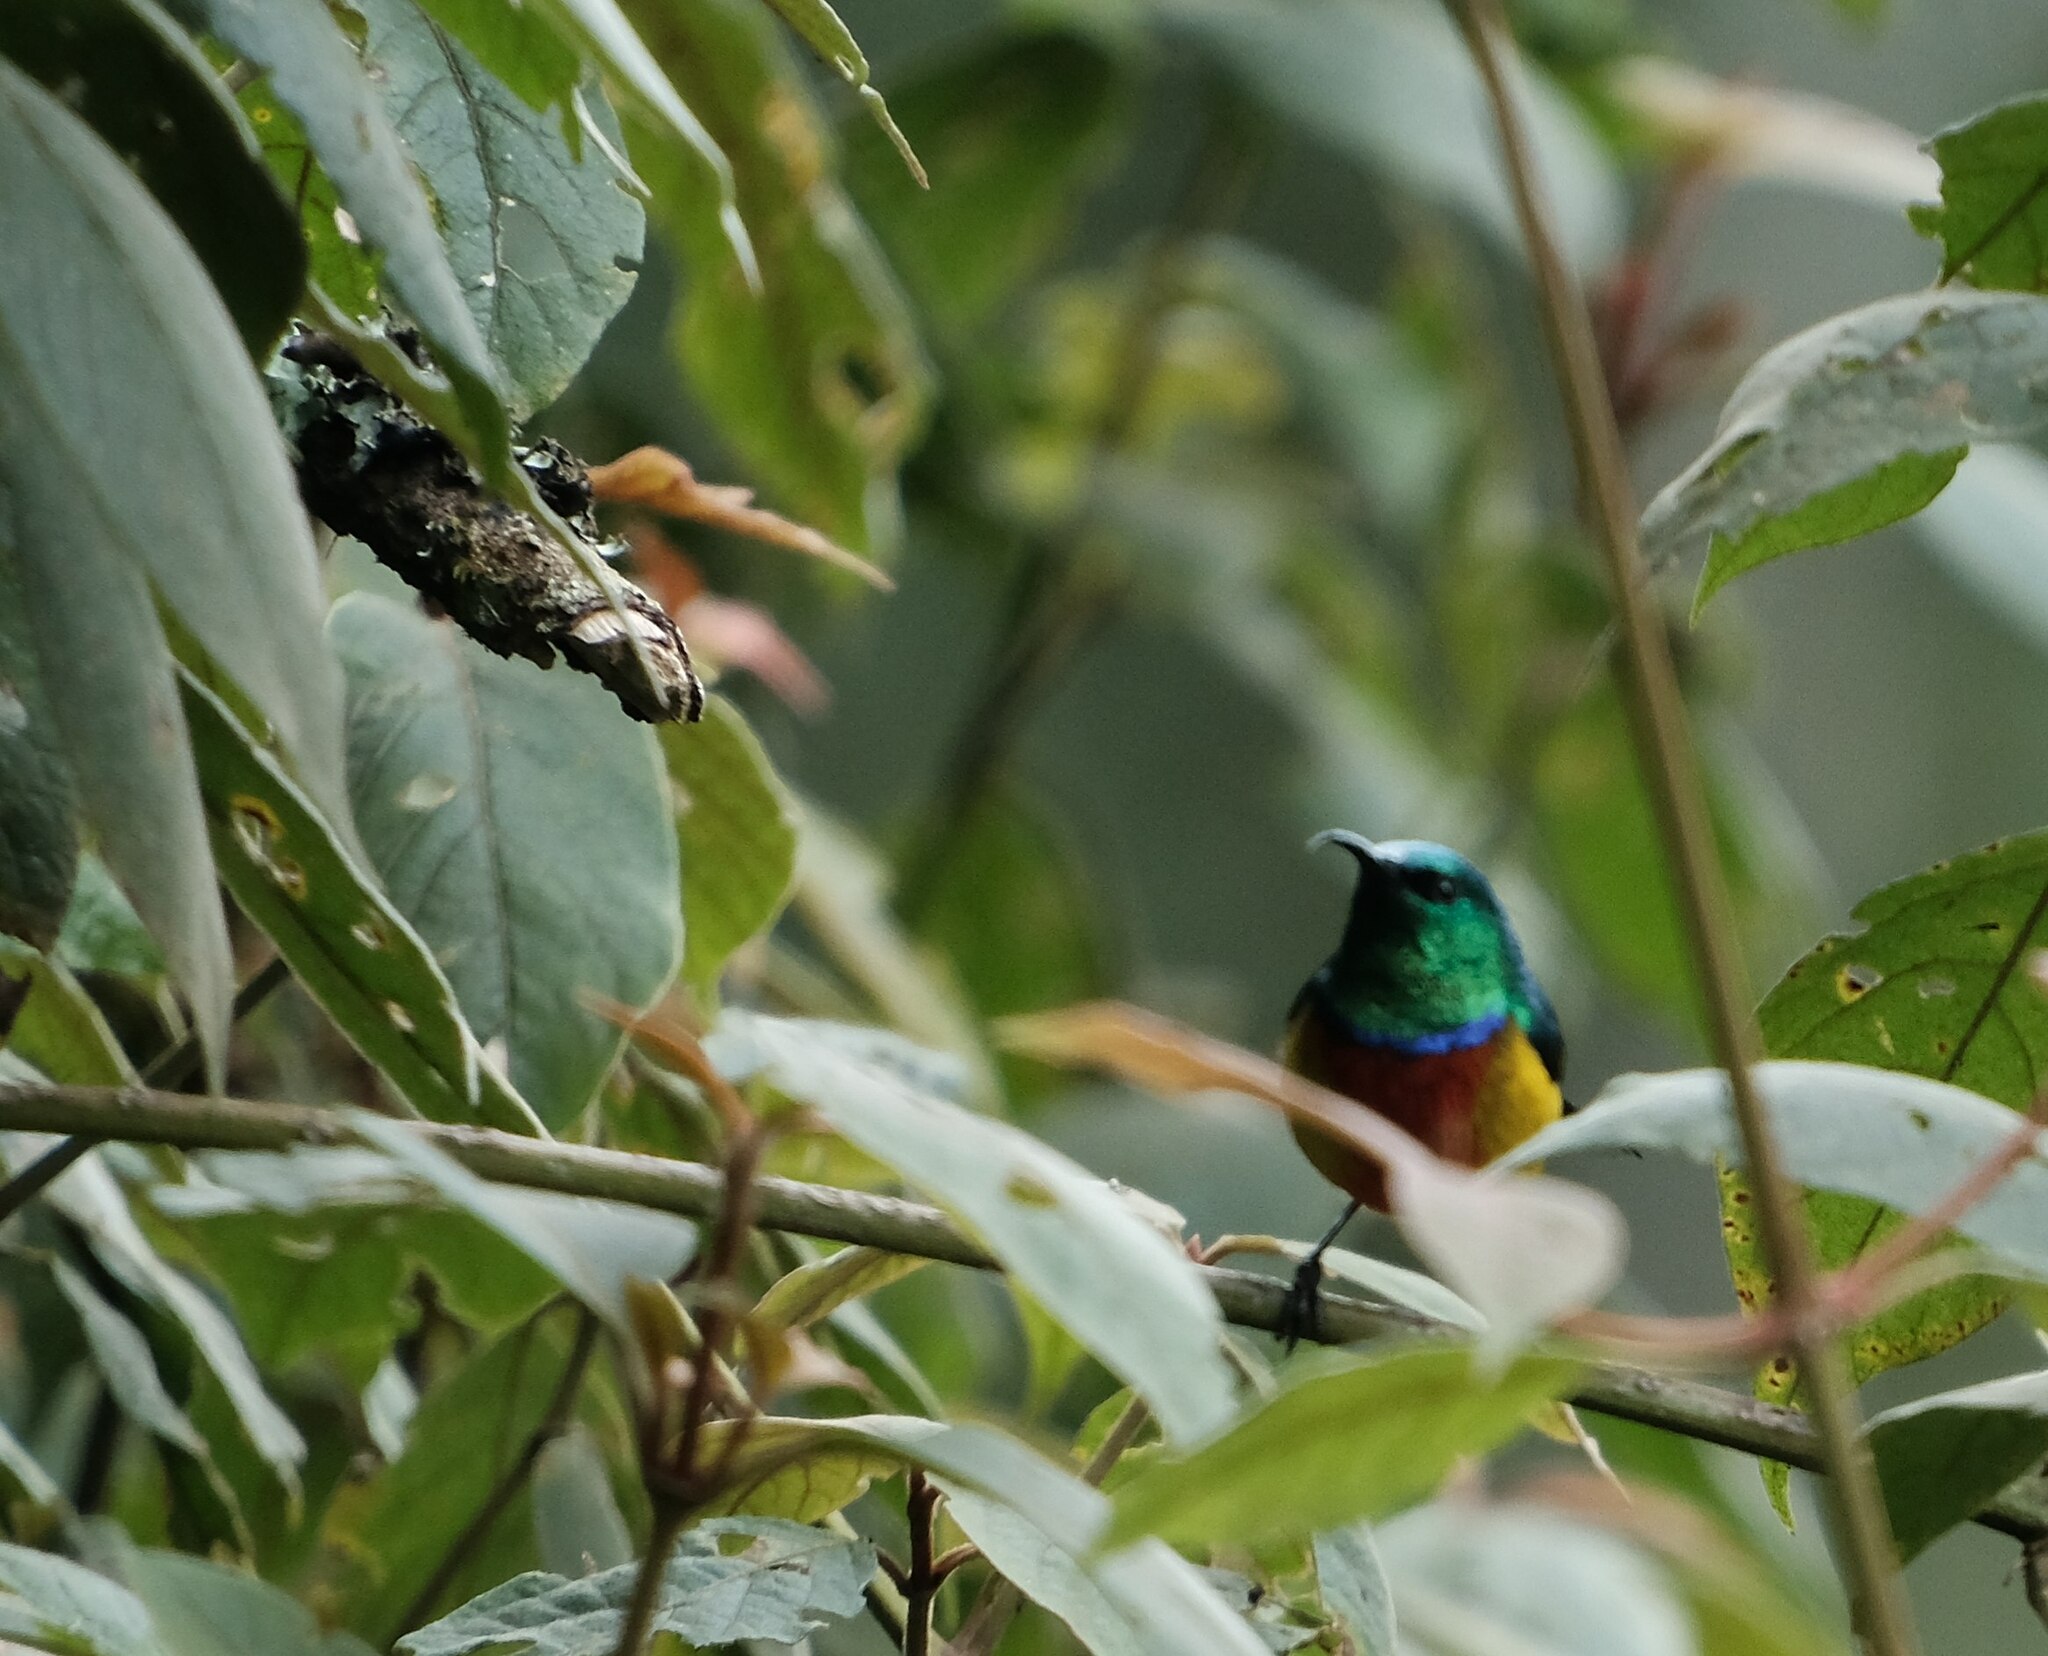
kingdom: Animalia
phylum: Chordata
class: Aves
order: Passeriformes
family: Nectariniidae
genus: Cinnyris
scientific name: Cinnyris regius
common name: Regal sunbird
